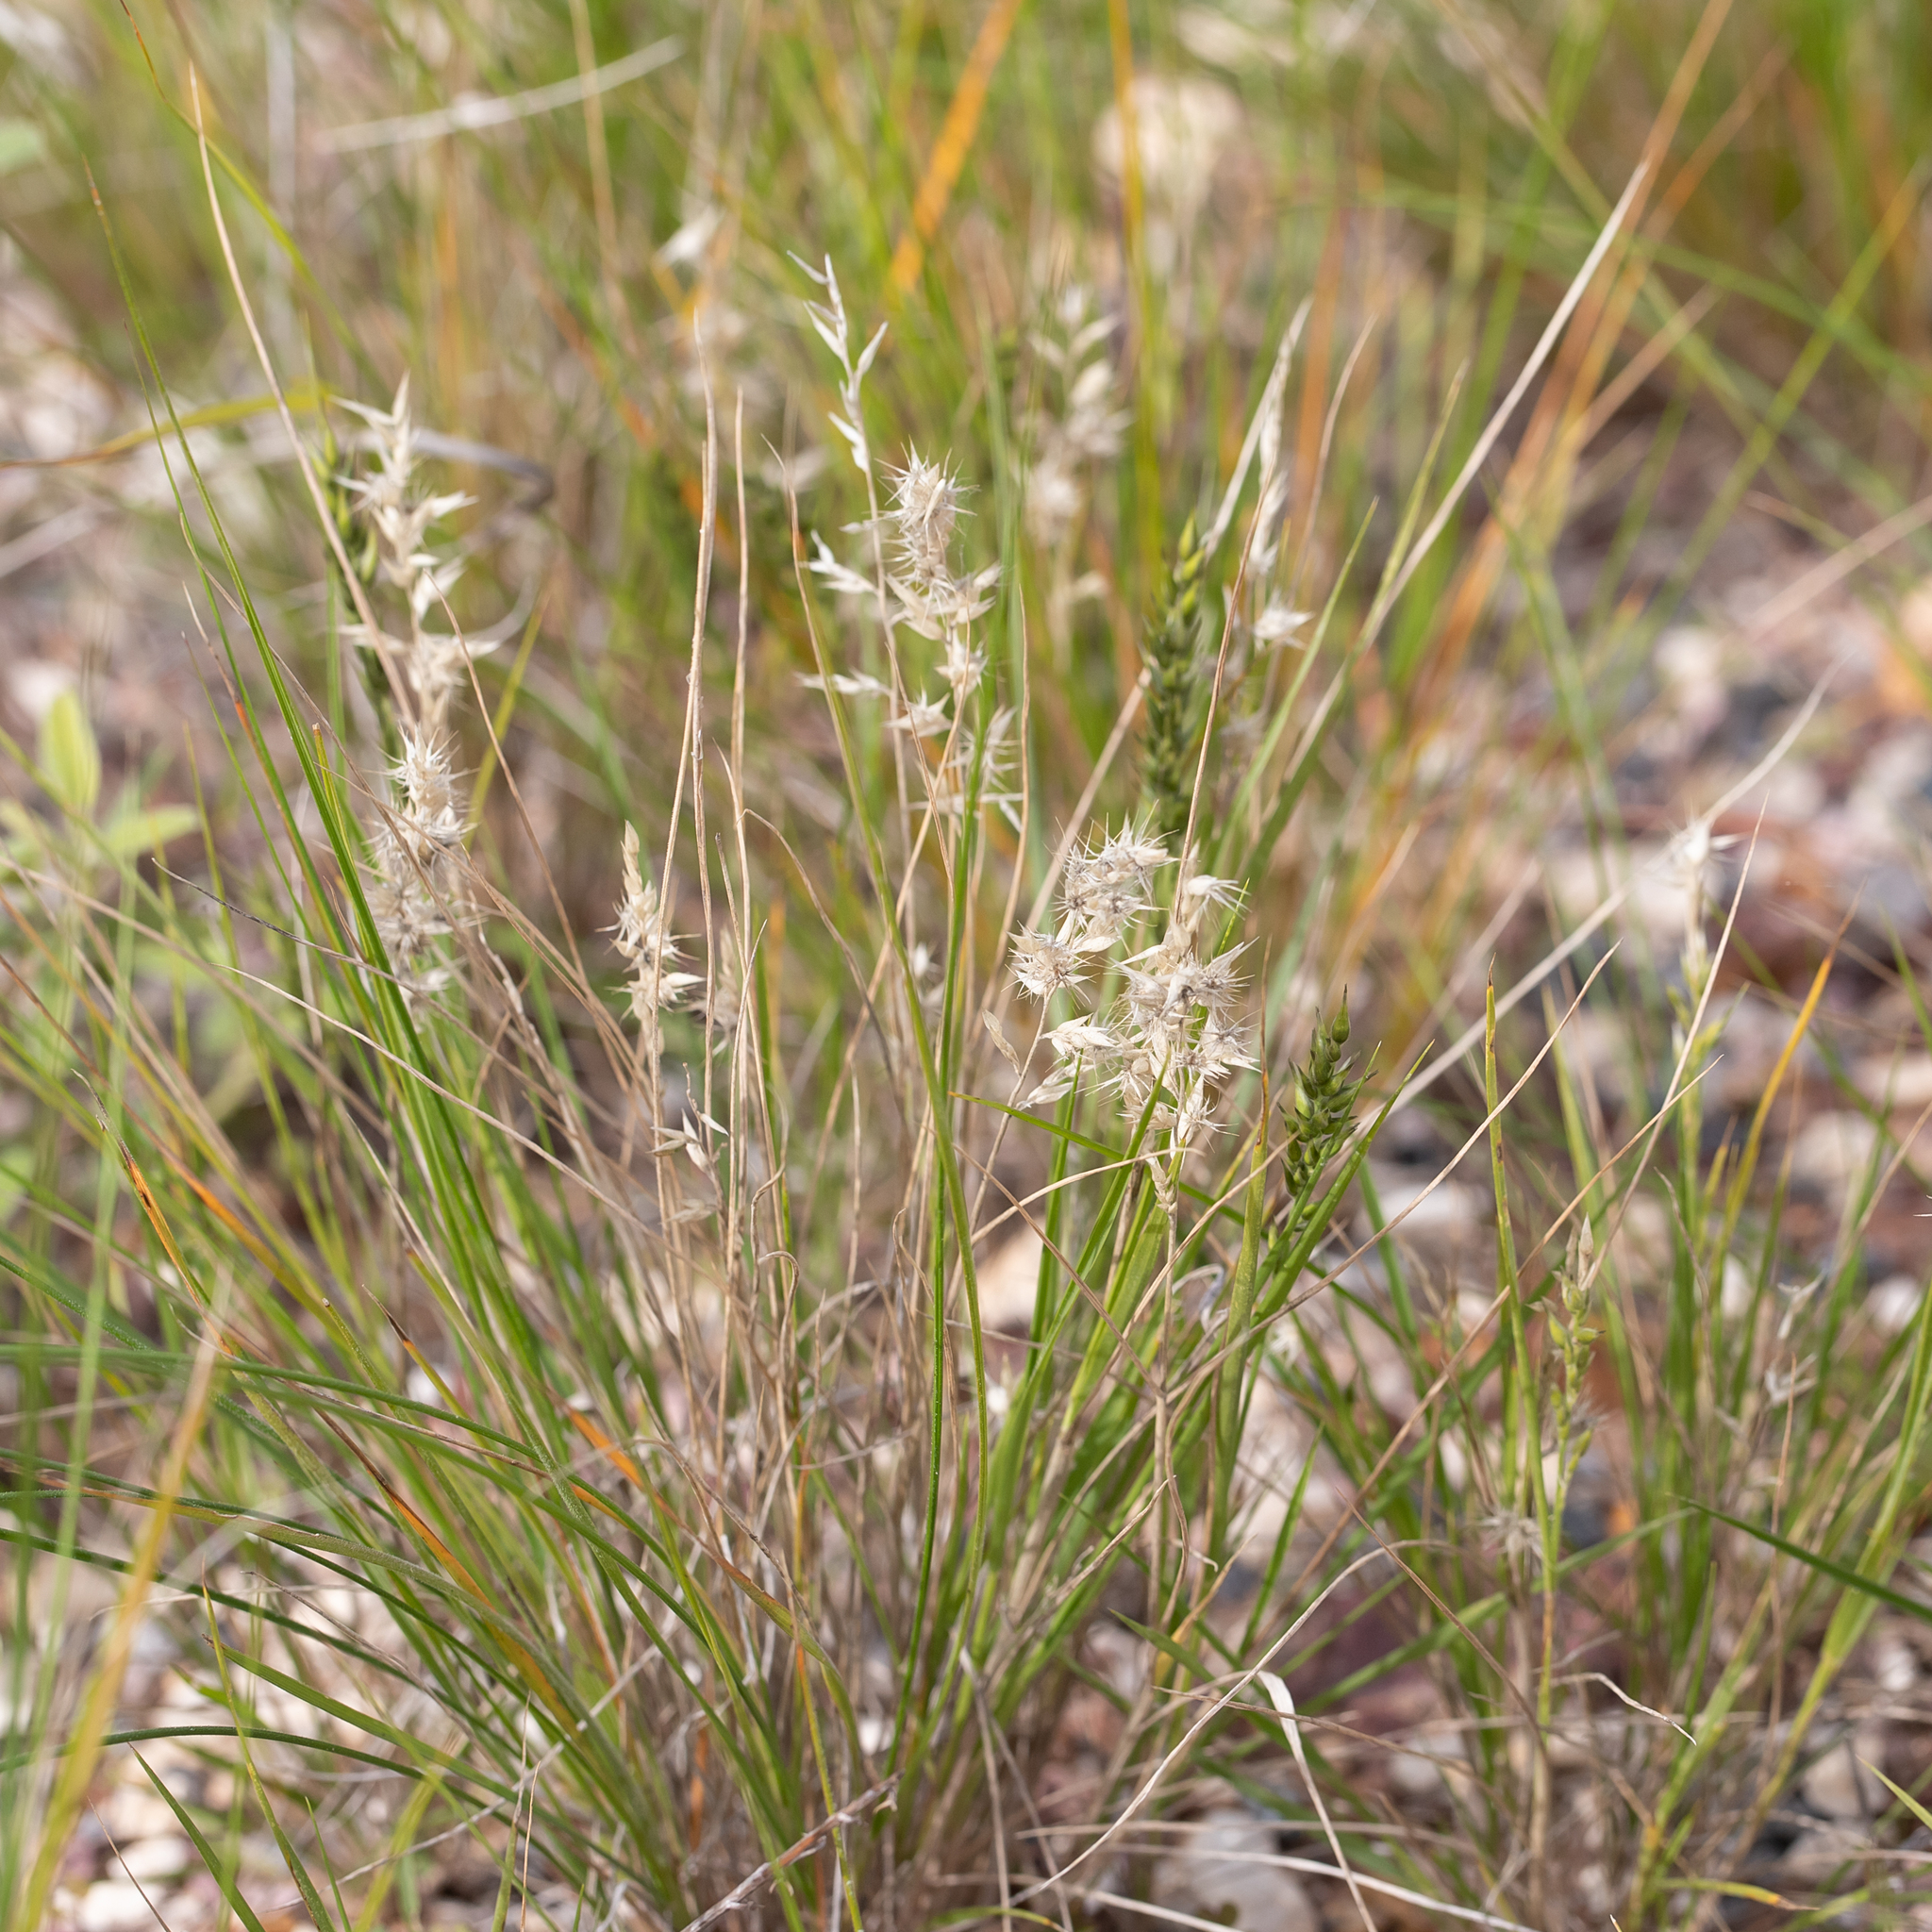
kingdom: Plantae
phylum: Tracheophyta
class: Liliopsida
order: Poales
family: Poaceae
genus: Enneapogon
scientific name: Enneapogon avenaceus
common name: Hairy oat grass
